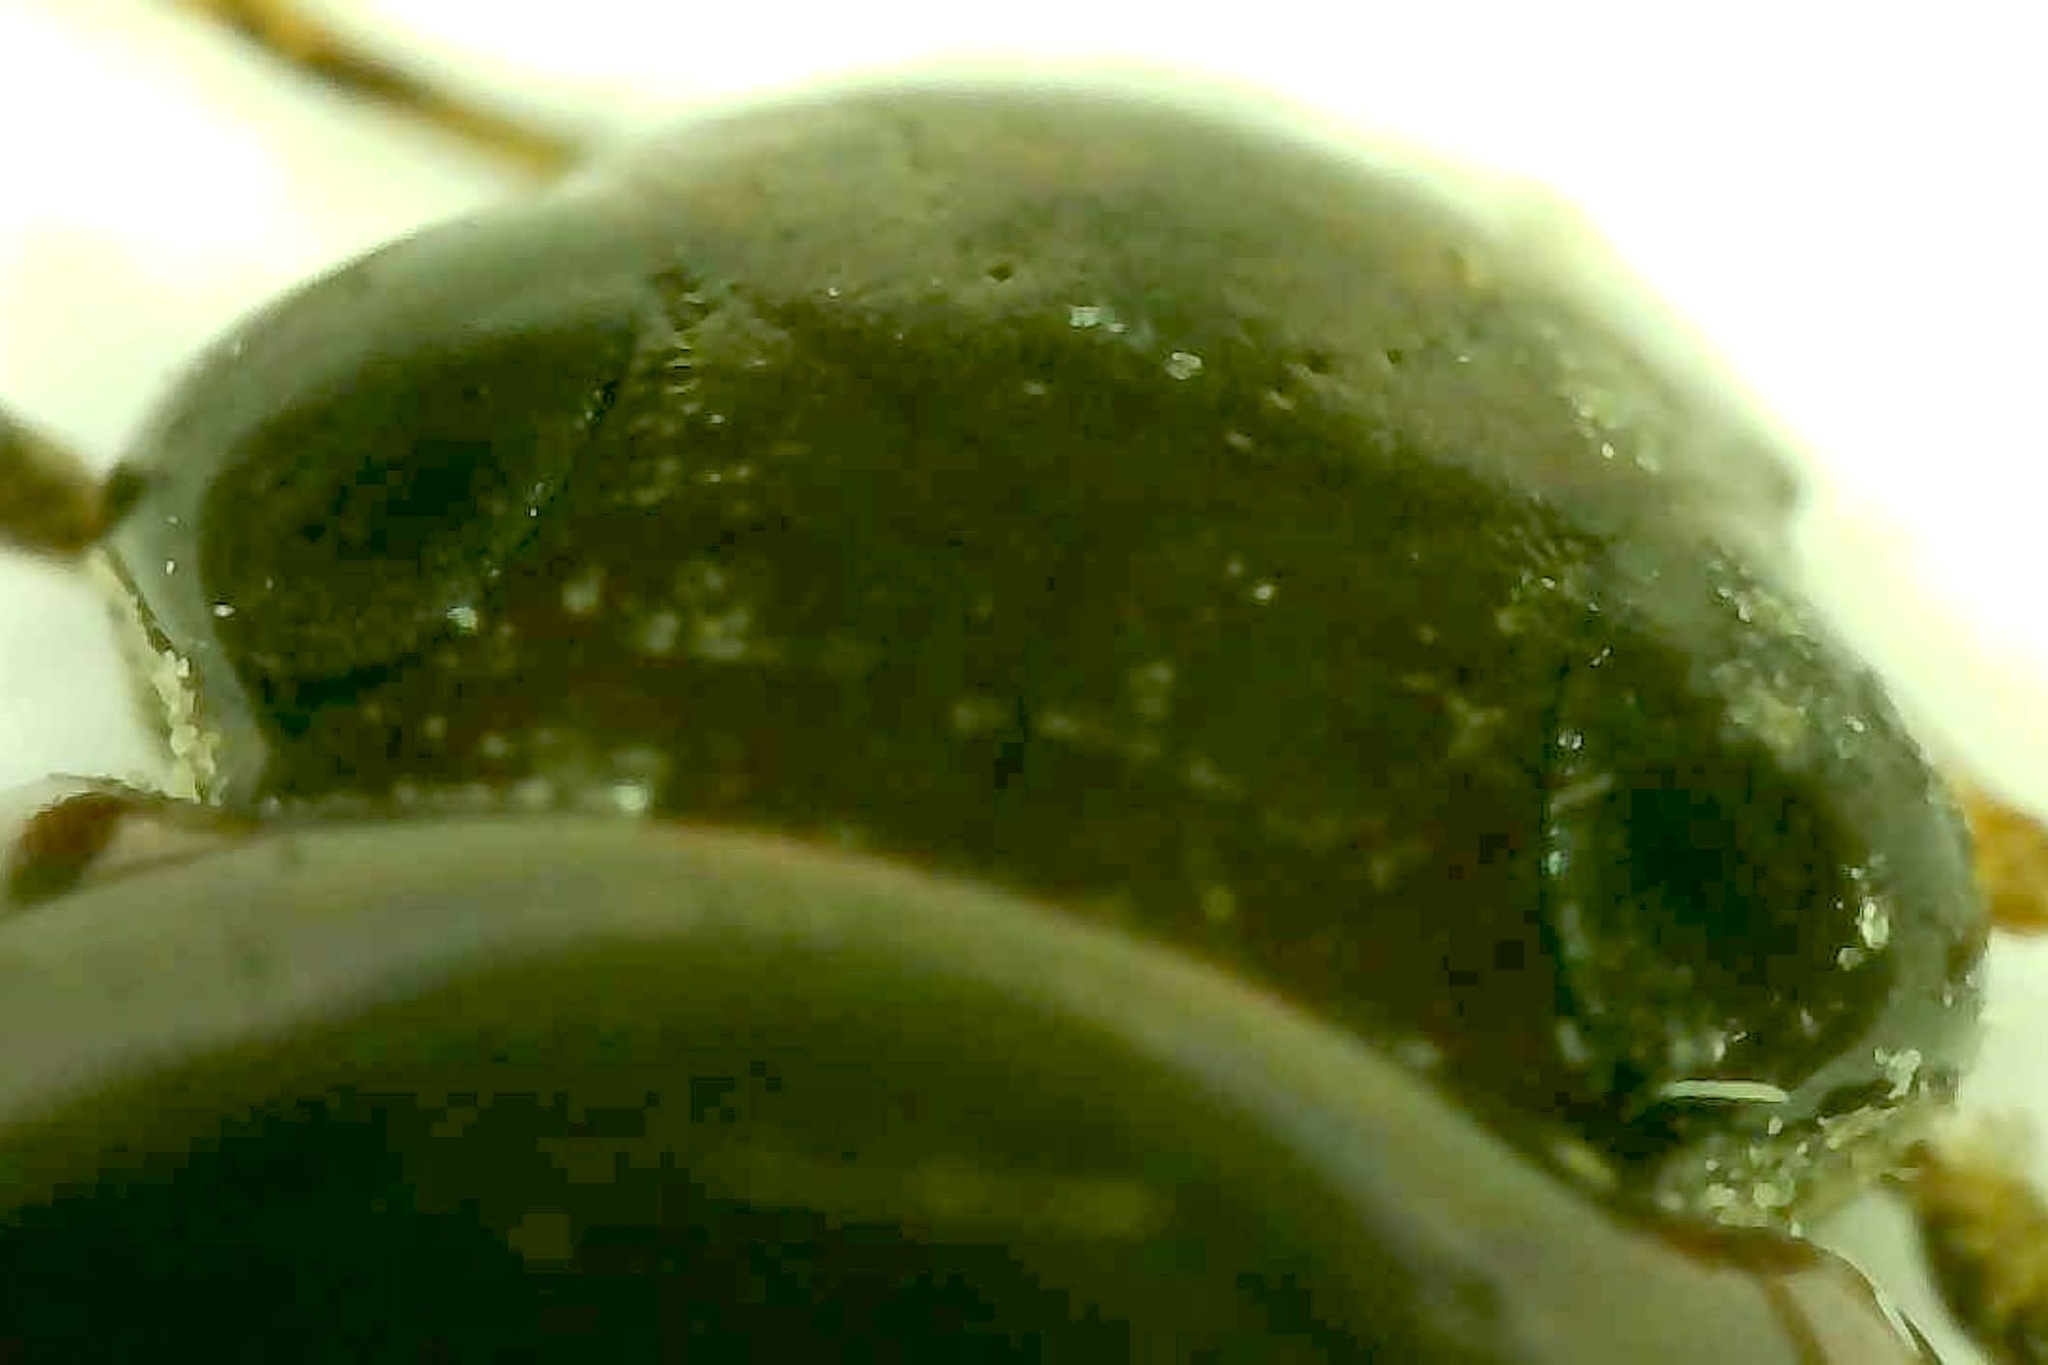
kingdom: Animalia
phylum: Arthropoda
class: Insecta
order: Coleoptera
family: Hydrophilidae
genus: Tropisternus
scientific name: Tropisternus collaris
